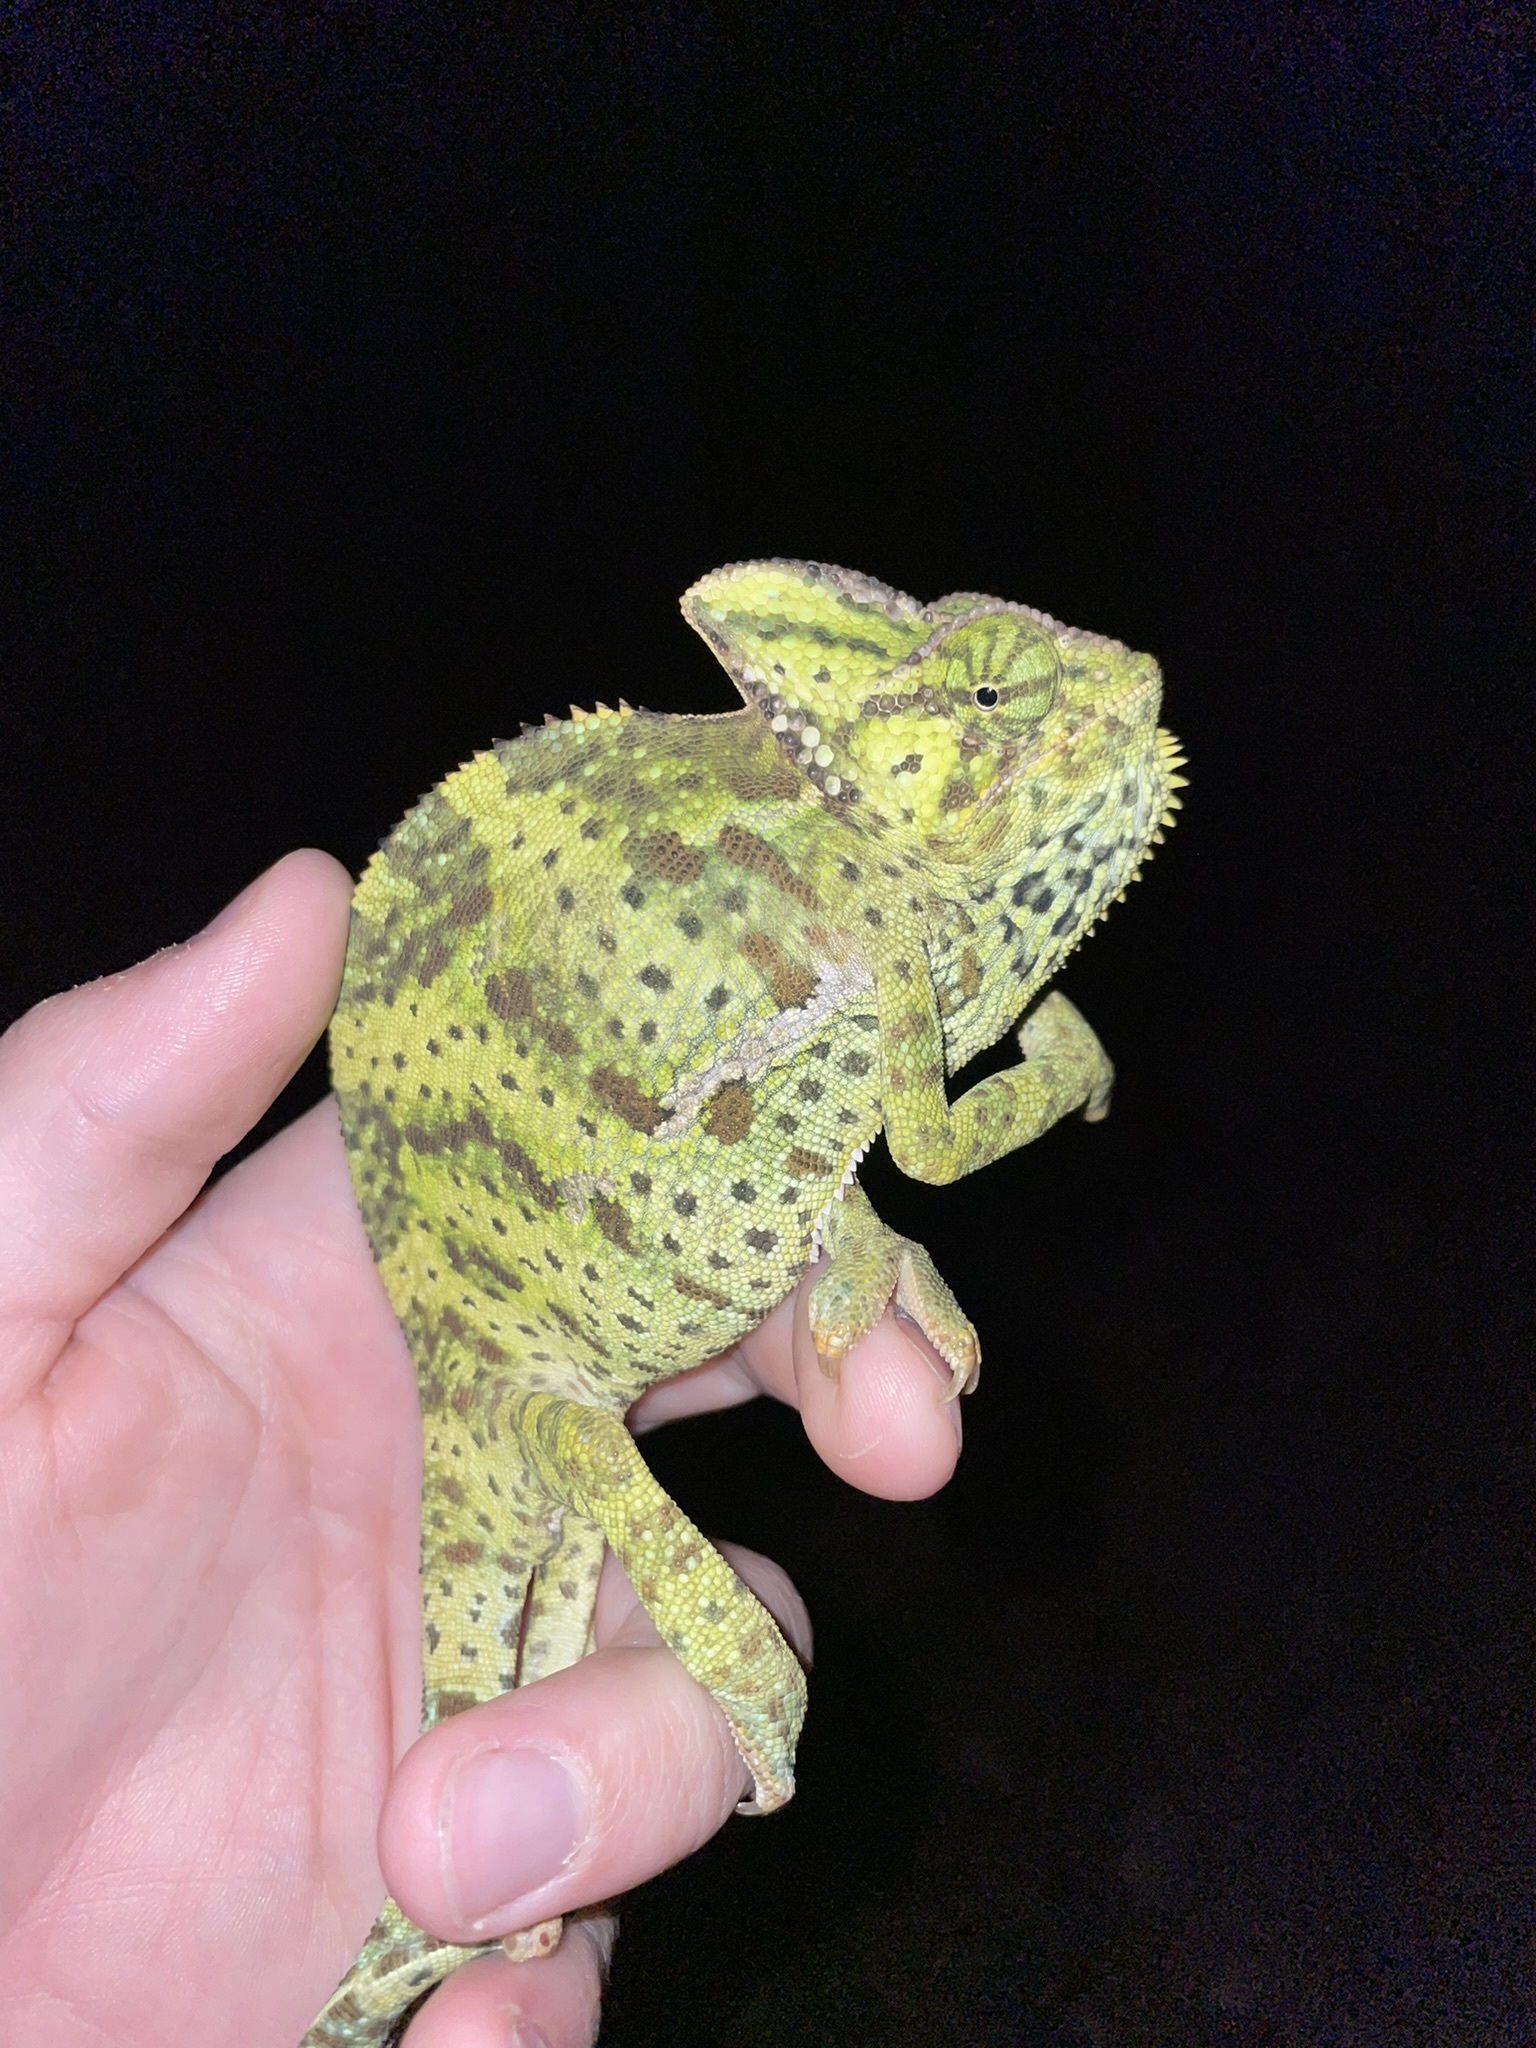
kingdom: Animalia
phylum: Chordata
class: Squamata
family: Chamaeleonidae
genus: Chamaeleo
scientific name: Chamaeleo calyptratus
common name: Veiled chameleon
